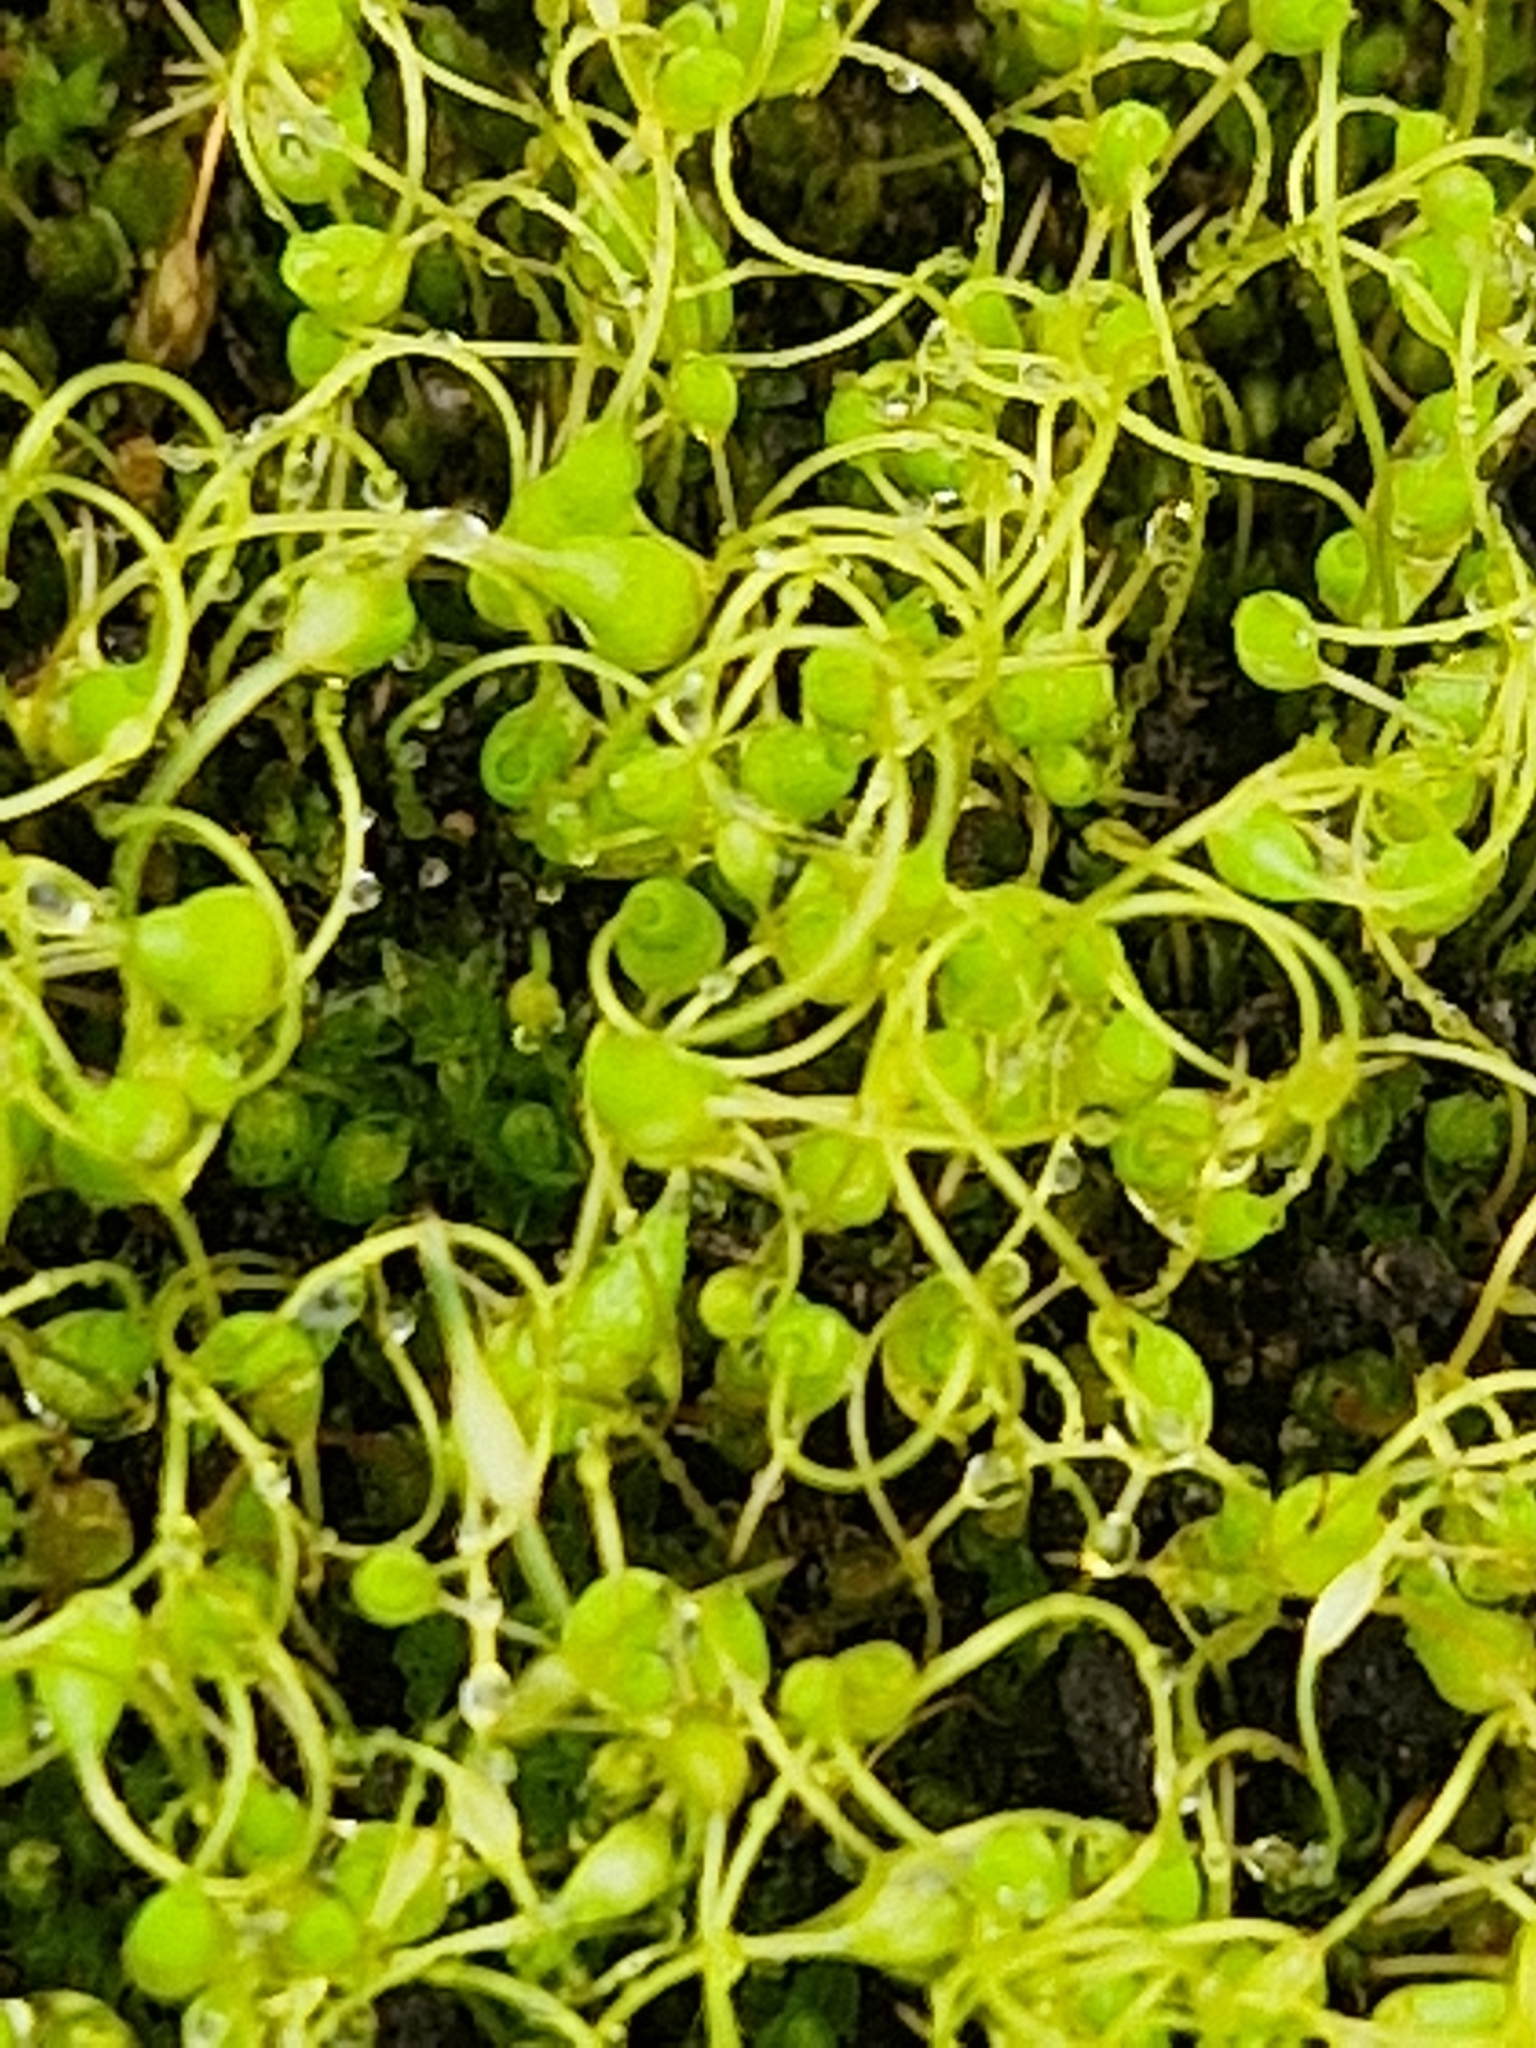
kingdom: Plantae
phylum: Bryophyta
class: Bryopsida
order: Funariales
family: Funariaceae
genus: Funaria
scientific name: Funaria hygrometrica
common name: Common cord moss
